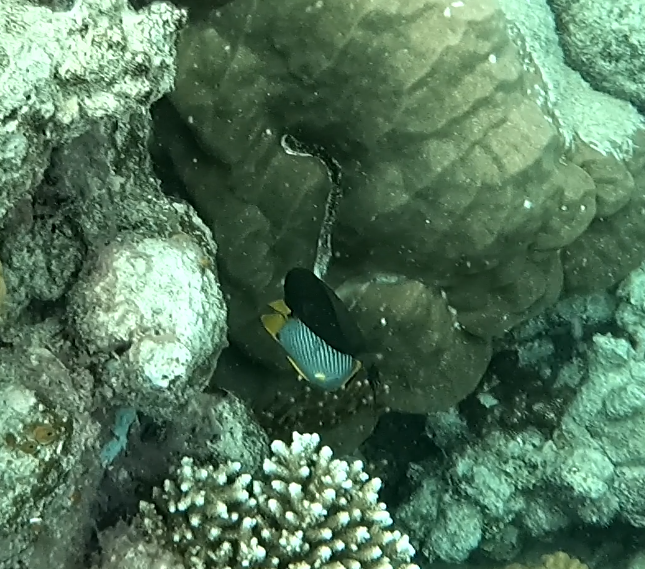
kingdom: Animalia
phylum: Chordata
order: Perciformes
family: Chaetodontidae
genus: Chaetodon
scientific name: Chaetodon melannotus
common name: Blackback butterflyfish
